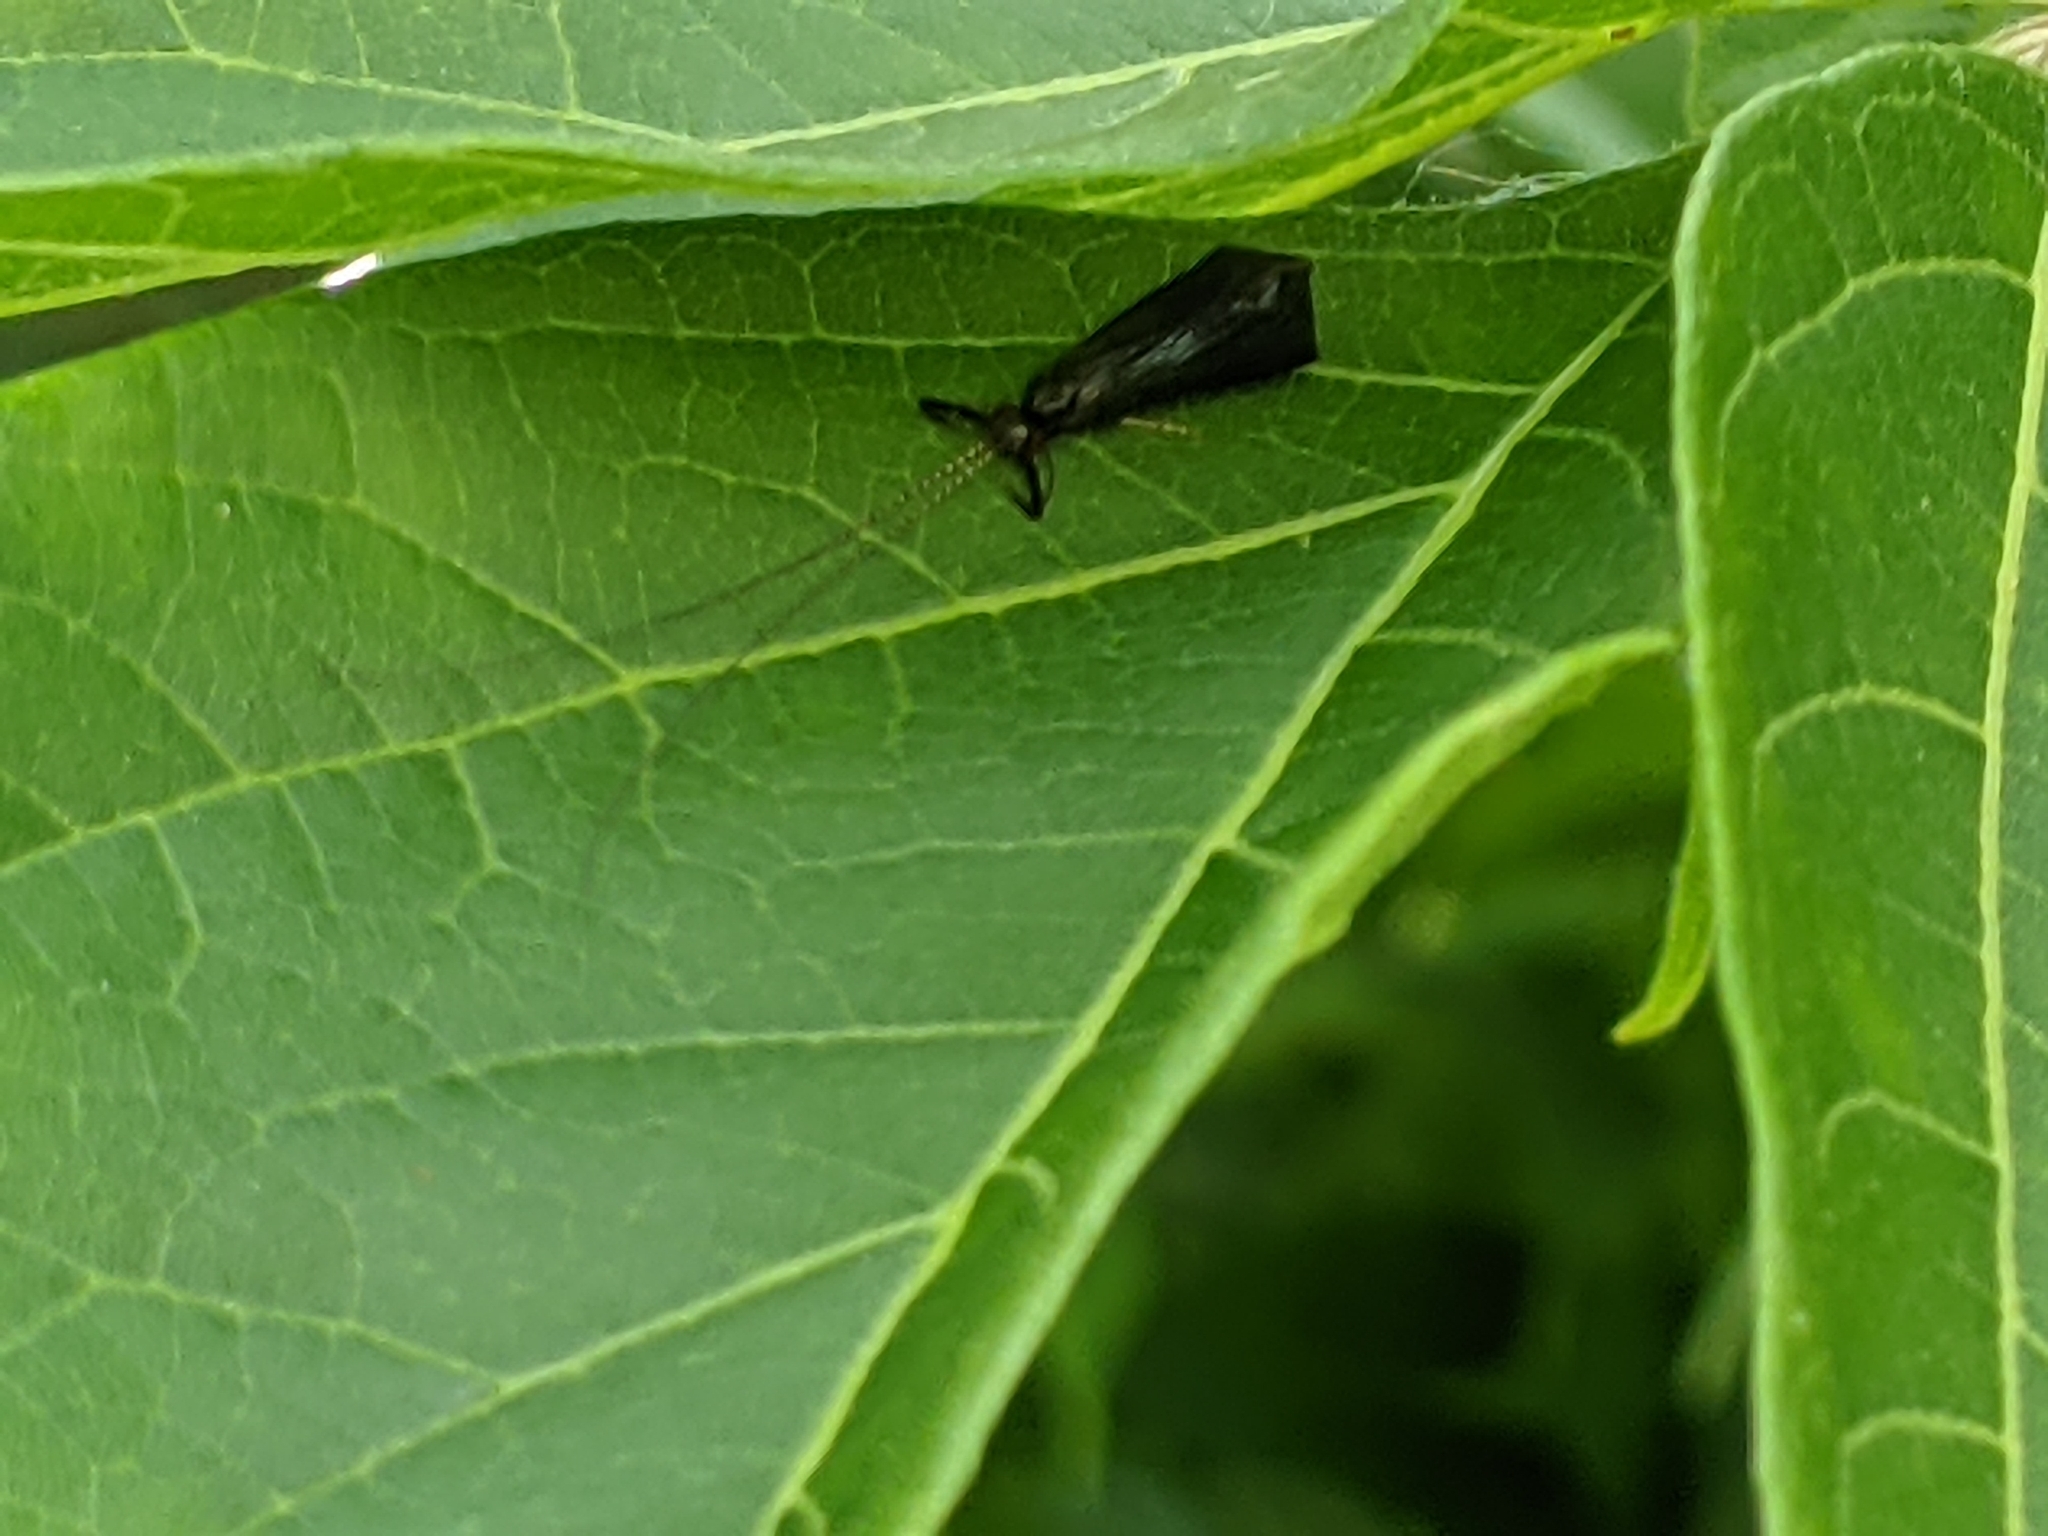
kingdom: Animalia
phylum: Arthropoda
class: Insecta
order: Trichoptera
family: Leptoceridae
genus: Mystacides
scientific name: Mystacides sepulchralis
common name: Black dancer caddisfly
